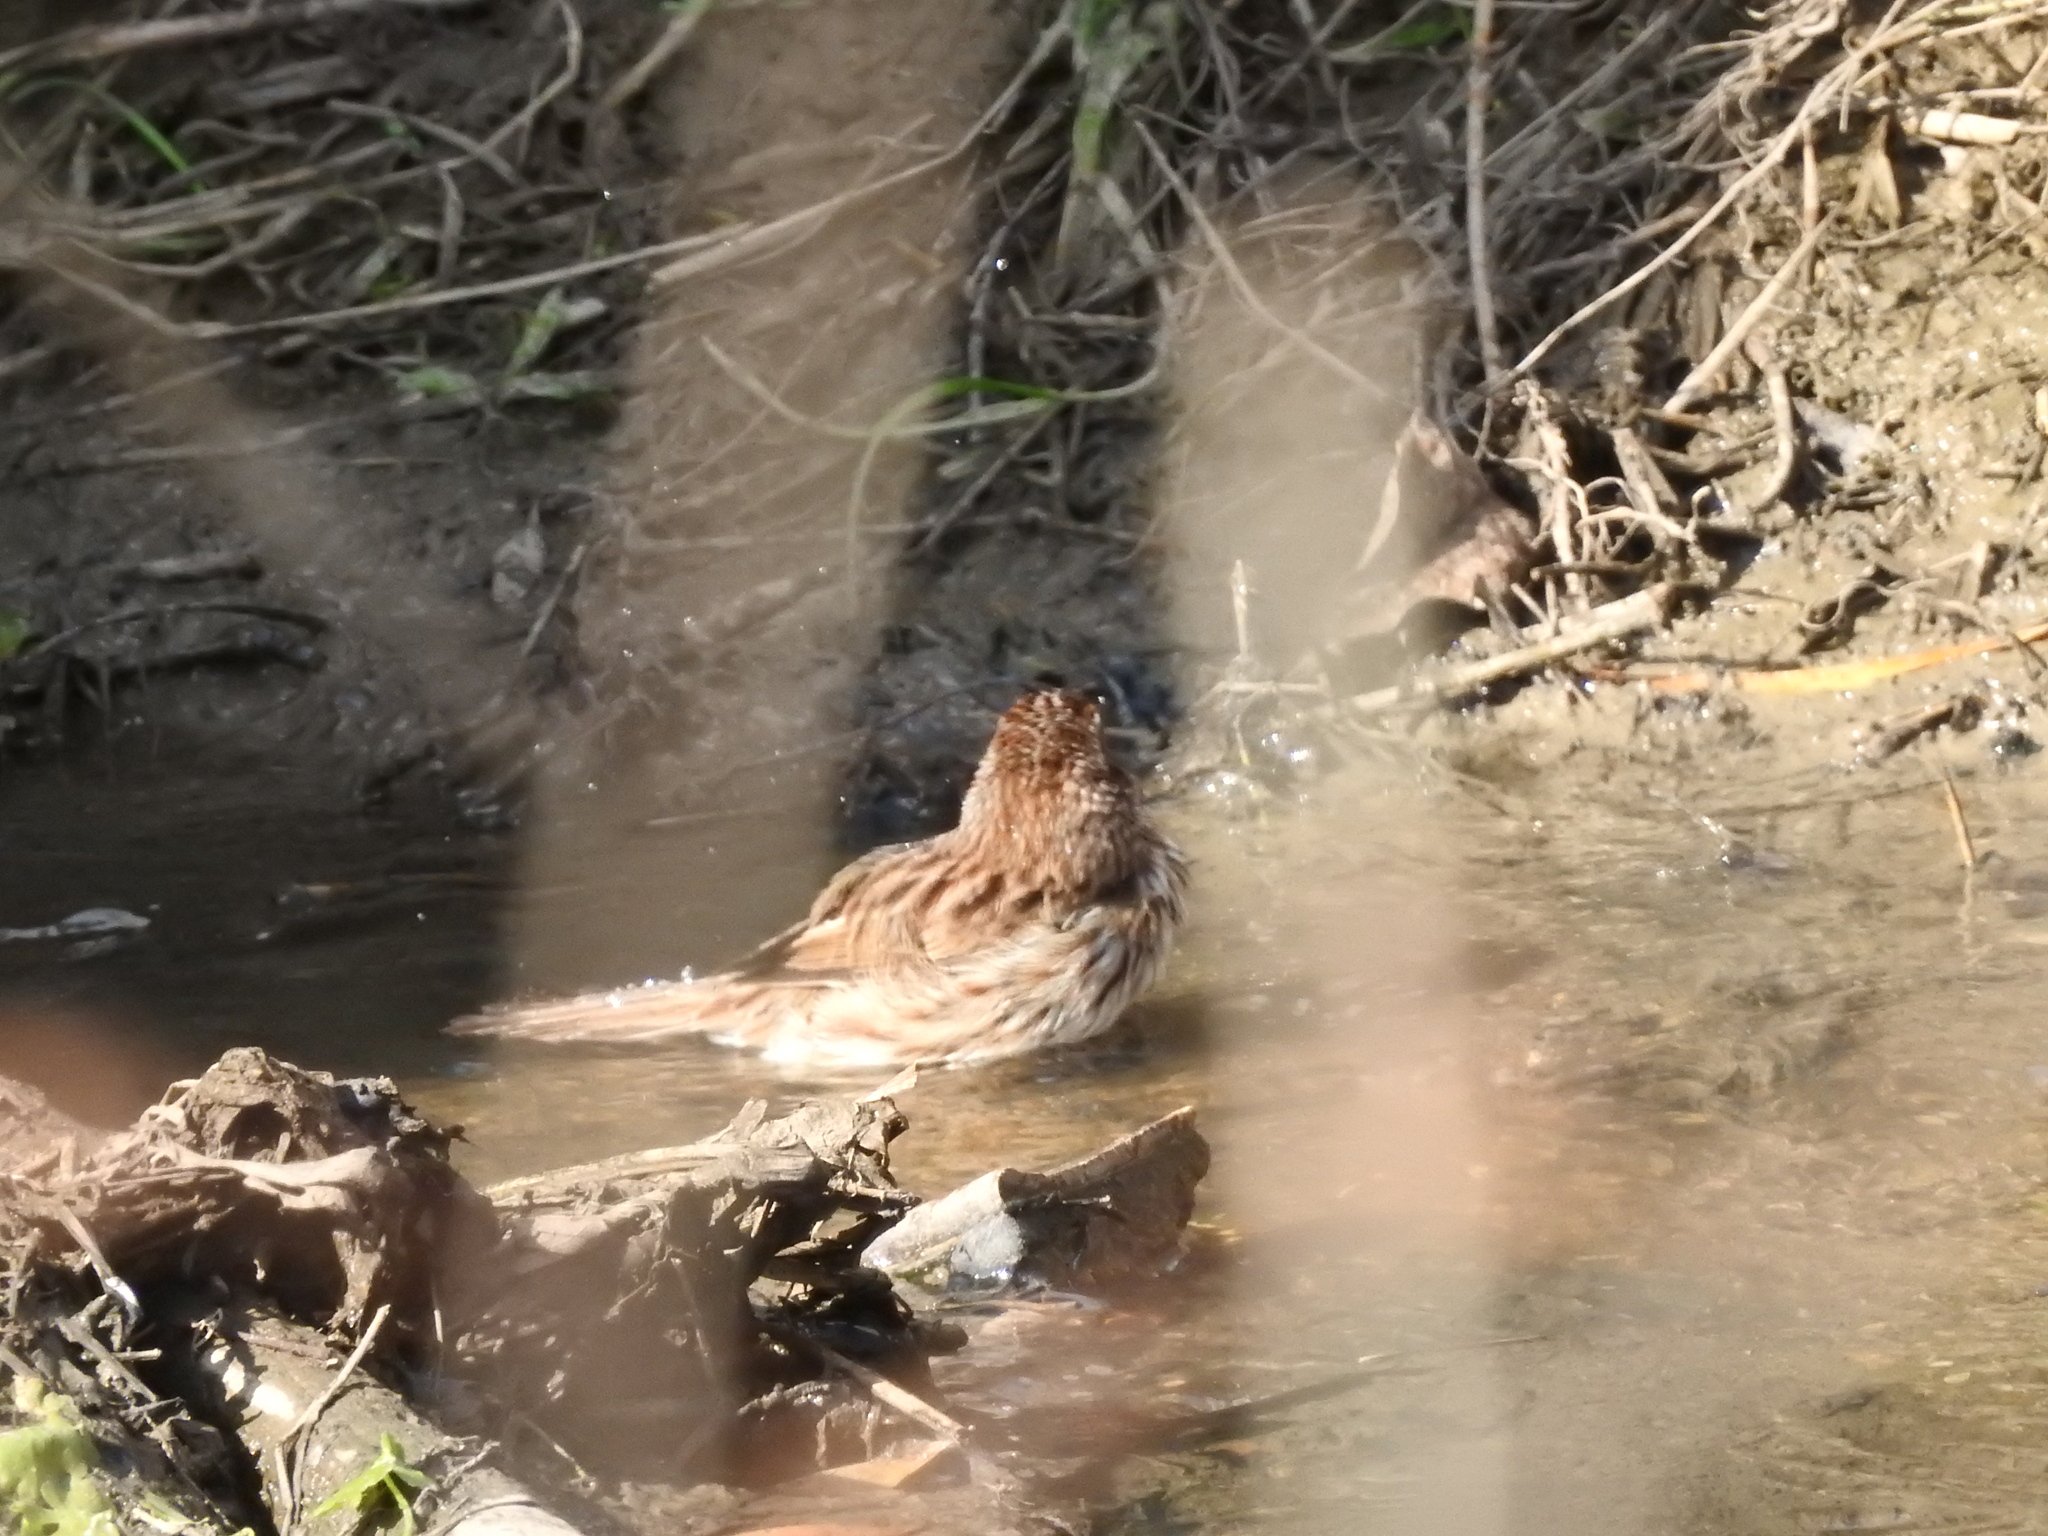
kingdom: Animalia
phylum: Chordata
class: Aves
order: Passeriformes
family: Passerellidae
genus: Melospiza
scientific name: Melospiza melodia
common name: Song sparrow
